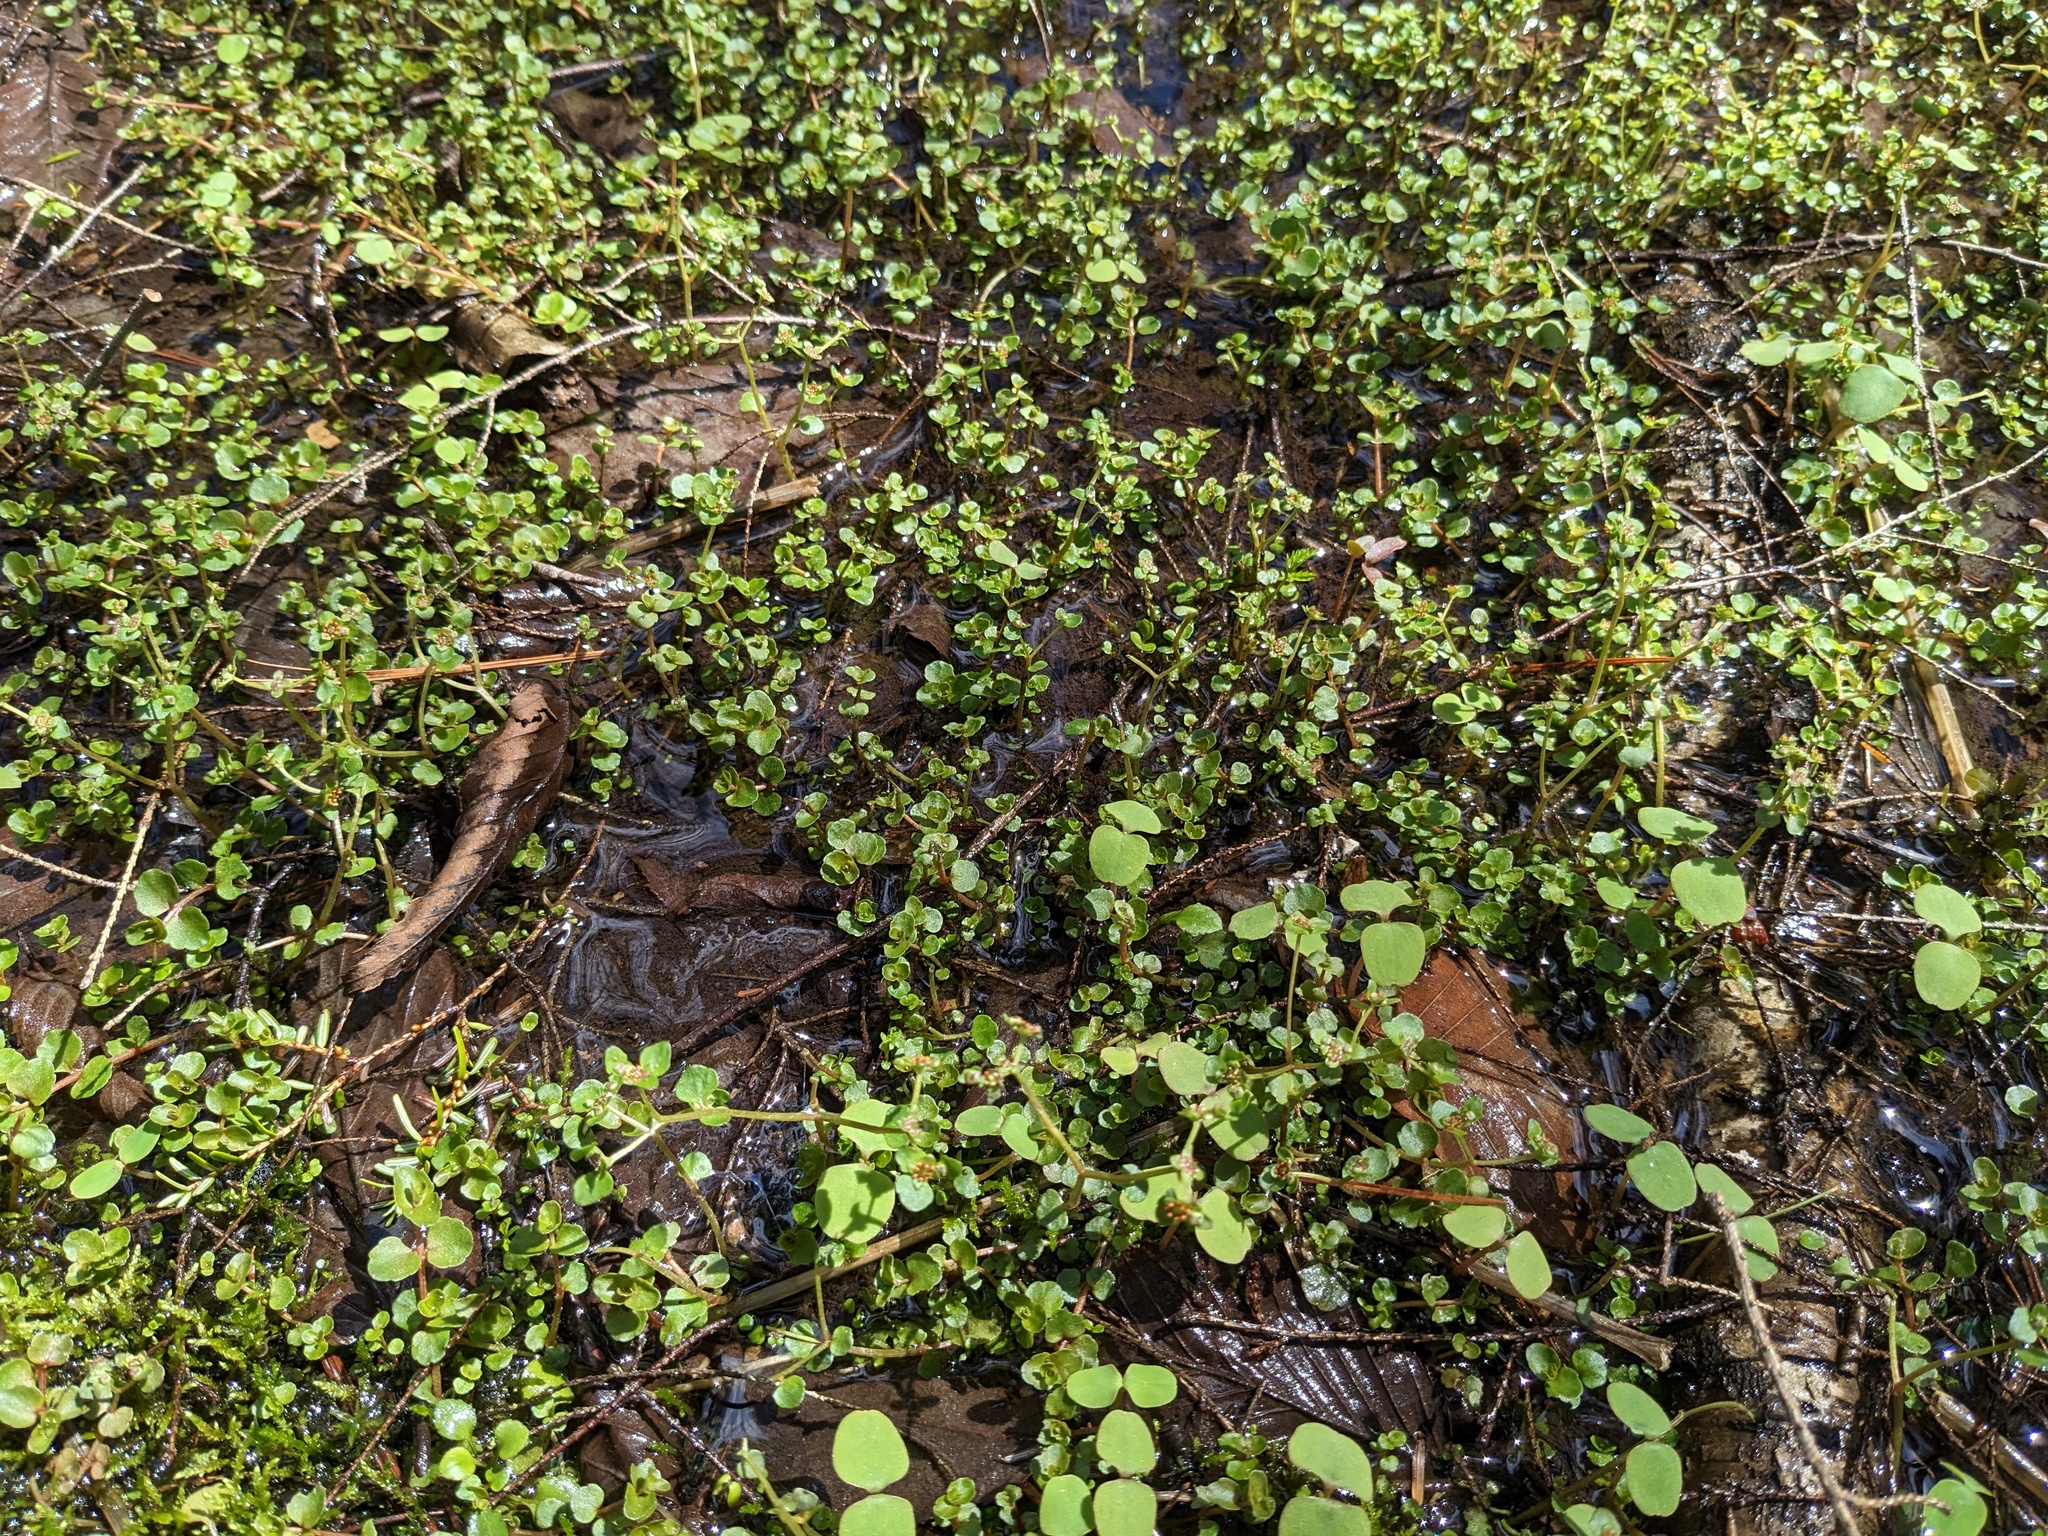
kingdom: Plantae
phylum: Tracheophyta
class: Magnoliopsida
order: Saxifragales
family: Saxifragaceae
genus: Chrysosplenium
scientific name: Chrysosplenium americanum
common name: American golden-saxifrage
